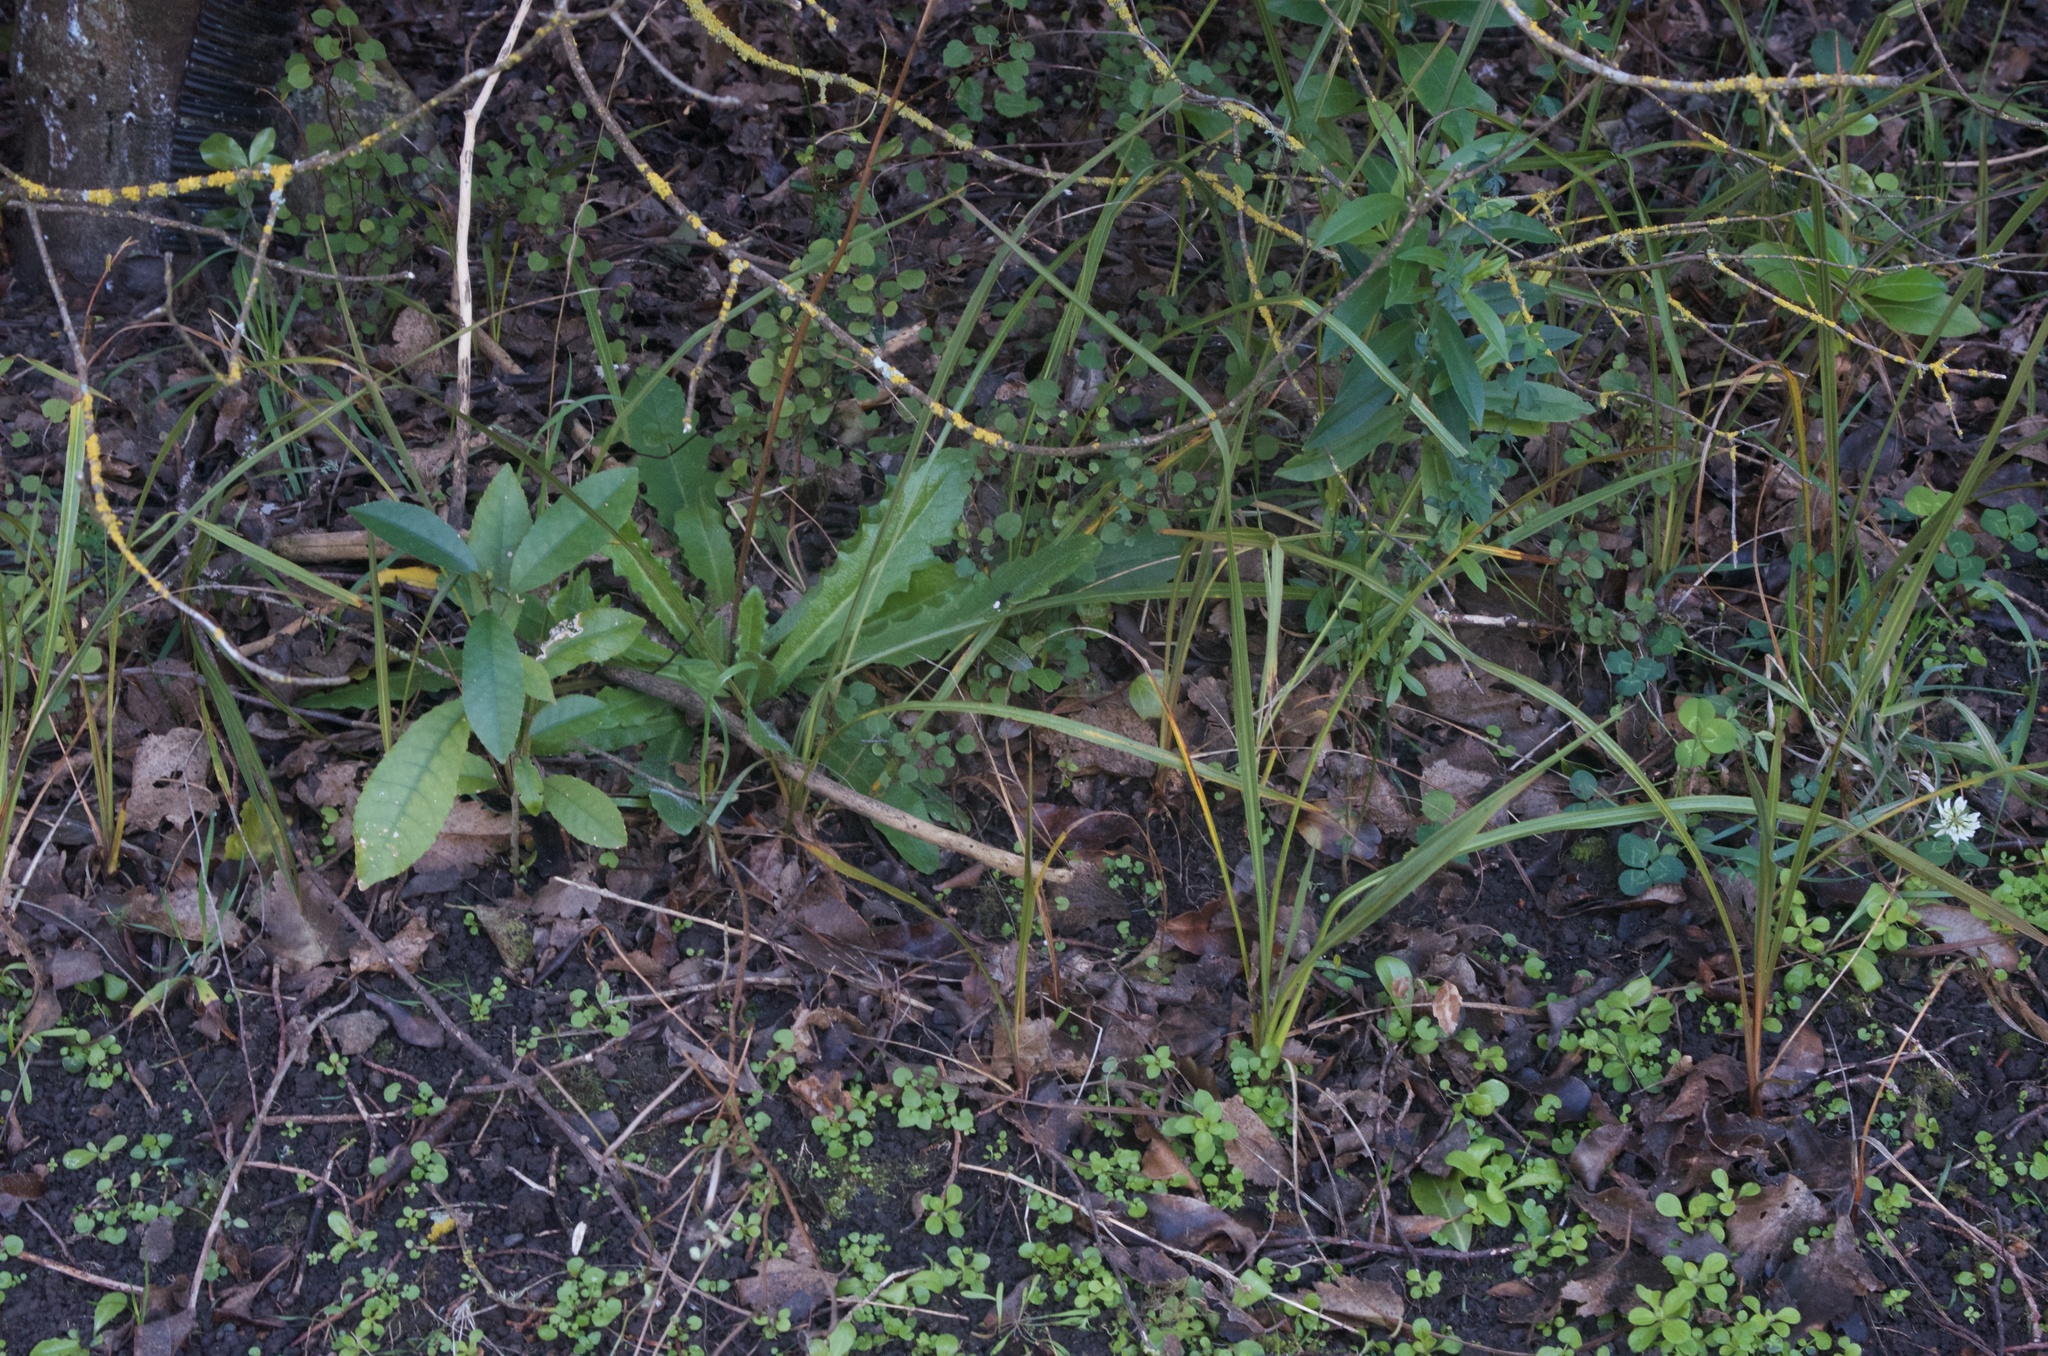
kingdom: Plantae
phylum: Tracheophyta
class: Magnoliopsida
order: Caryophyllales
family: Polygonaceae
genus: Muehlenbeckia
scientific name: Muehlenbeckia australis
